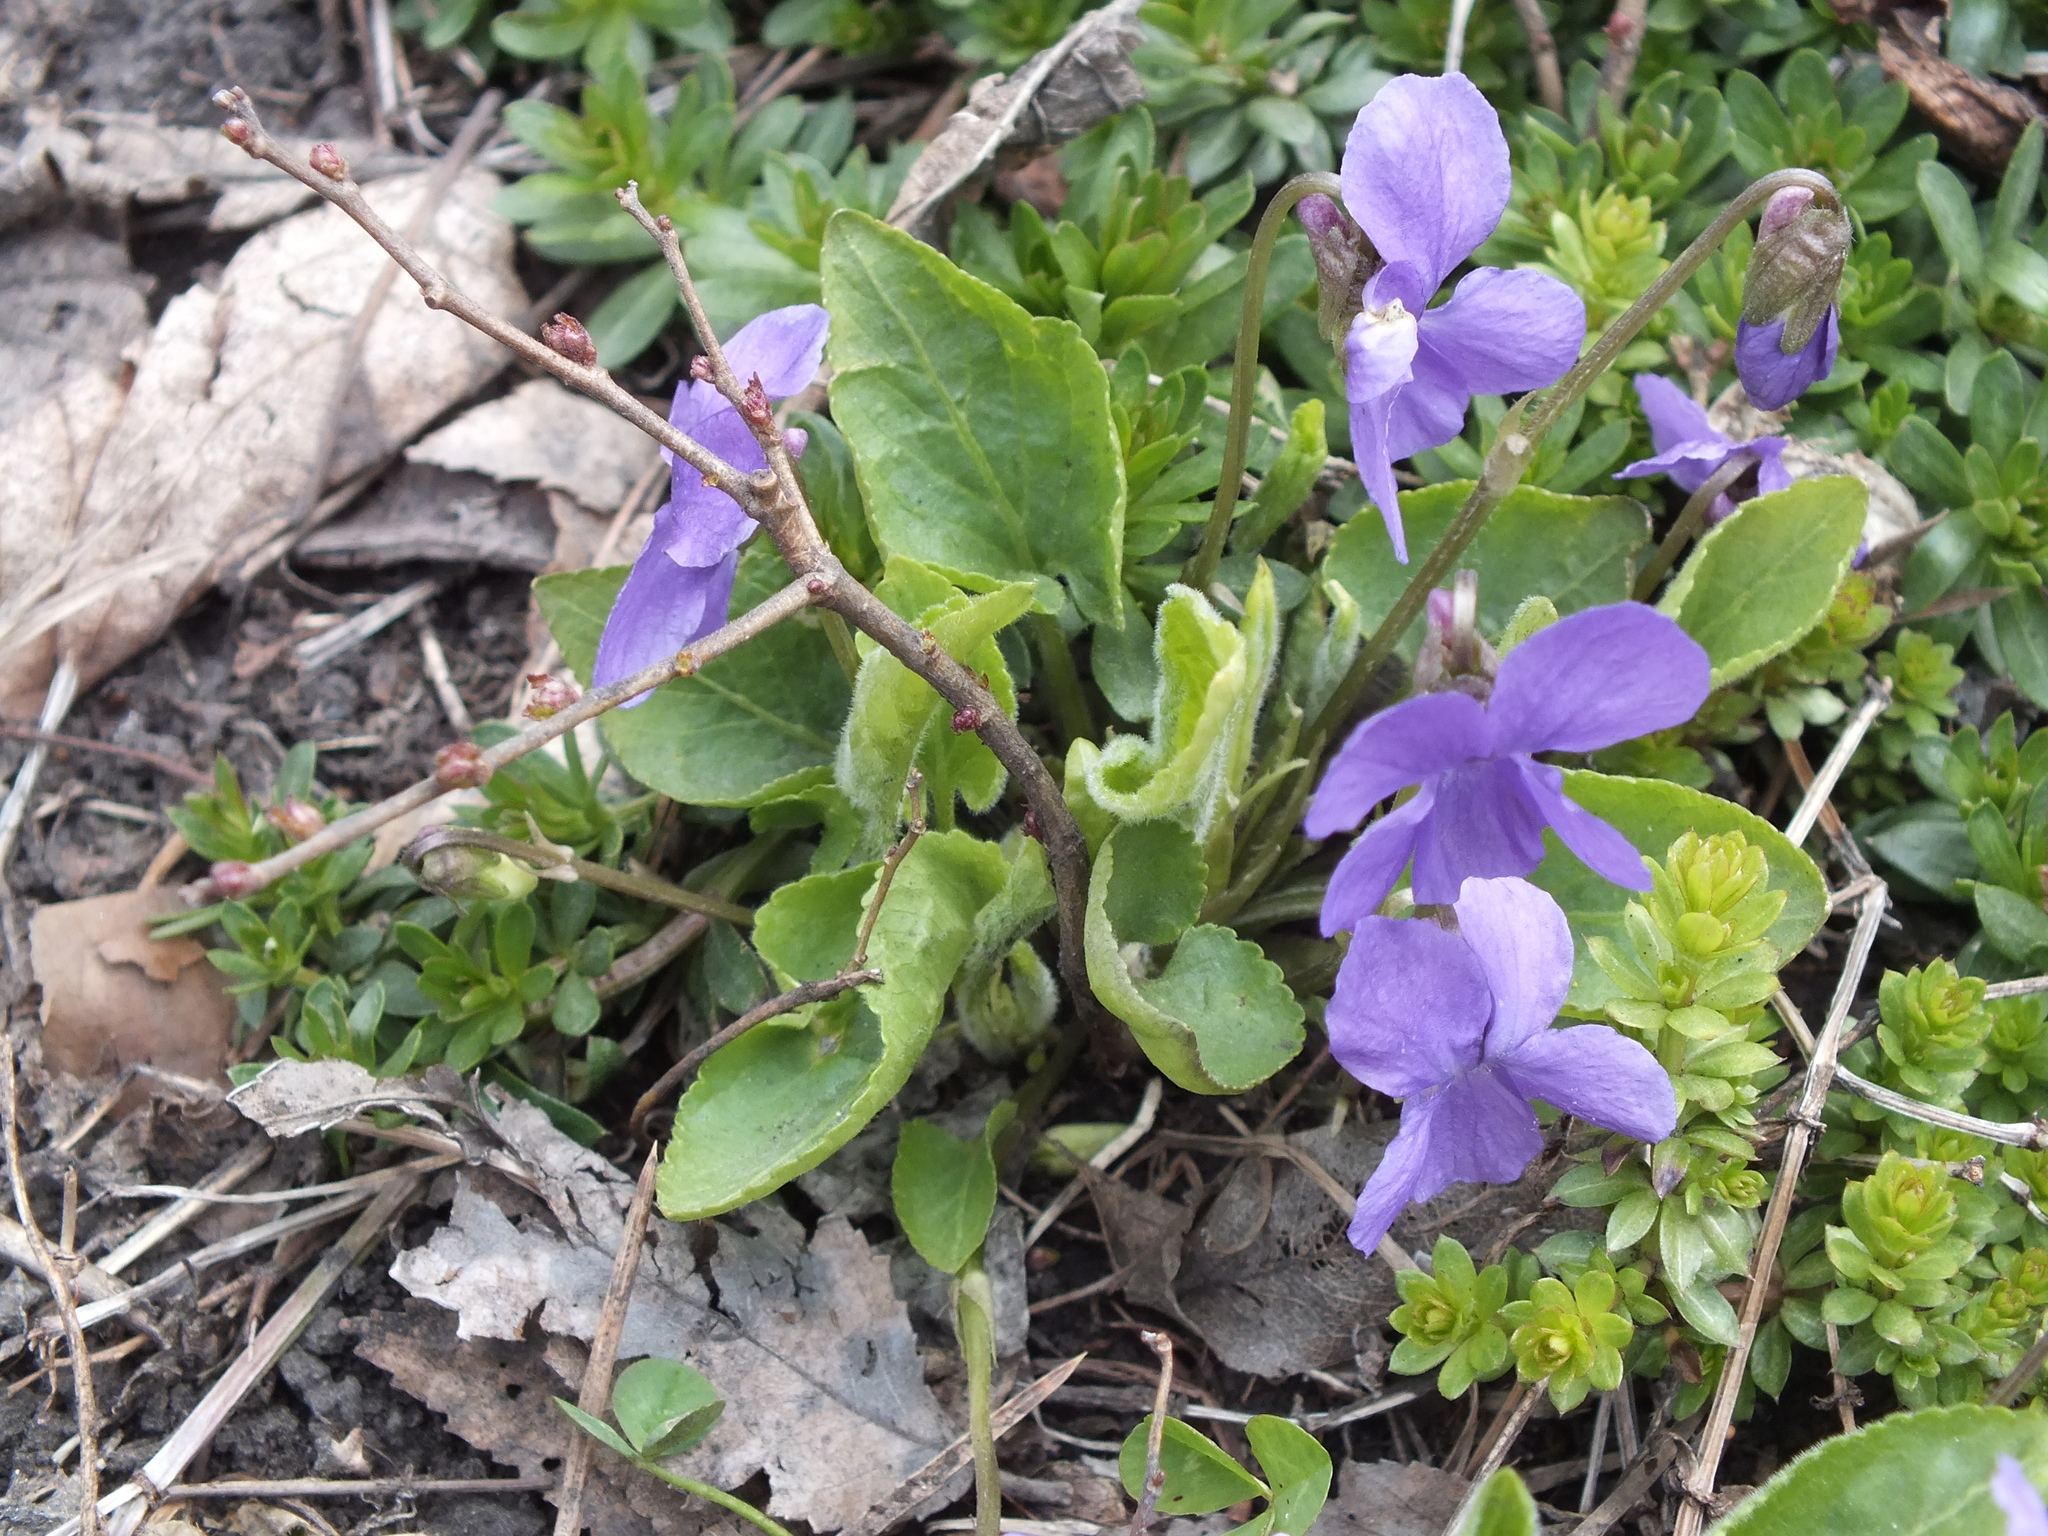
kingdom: Plantae
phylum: Tracheophyta
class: Magnoliopsida
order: Malpighiales
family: Violaceae
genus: Viola
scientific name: Viola hirta
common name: Hairy violet
